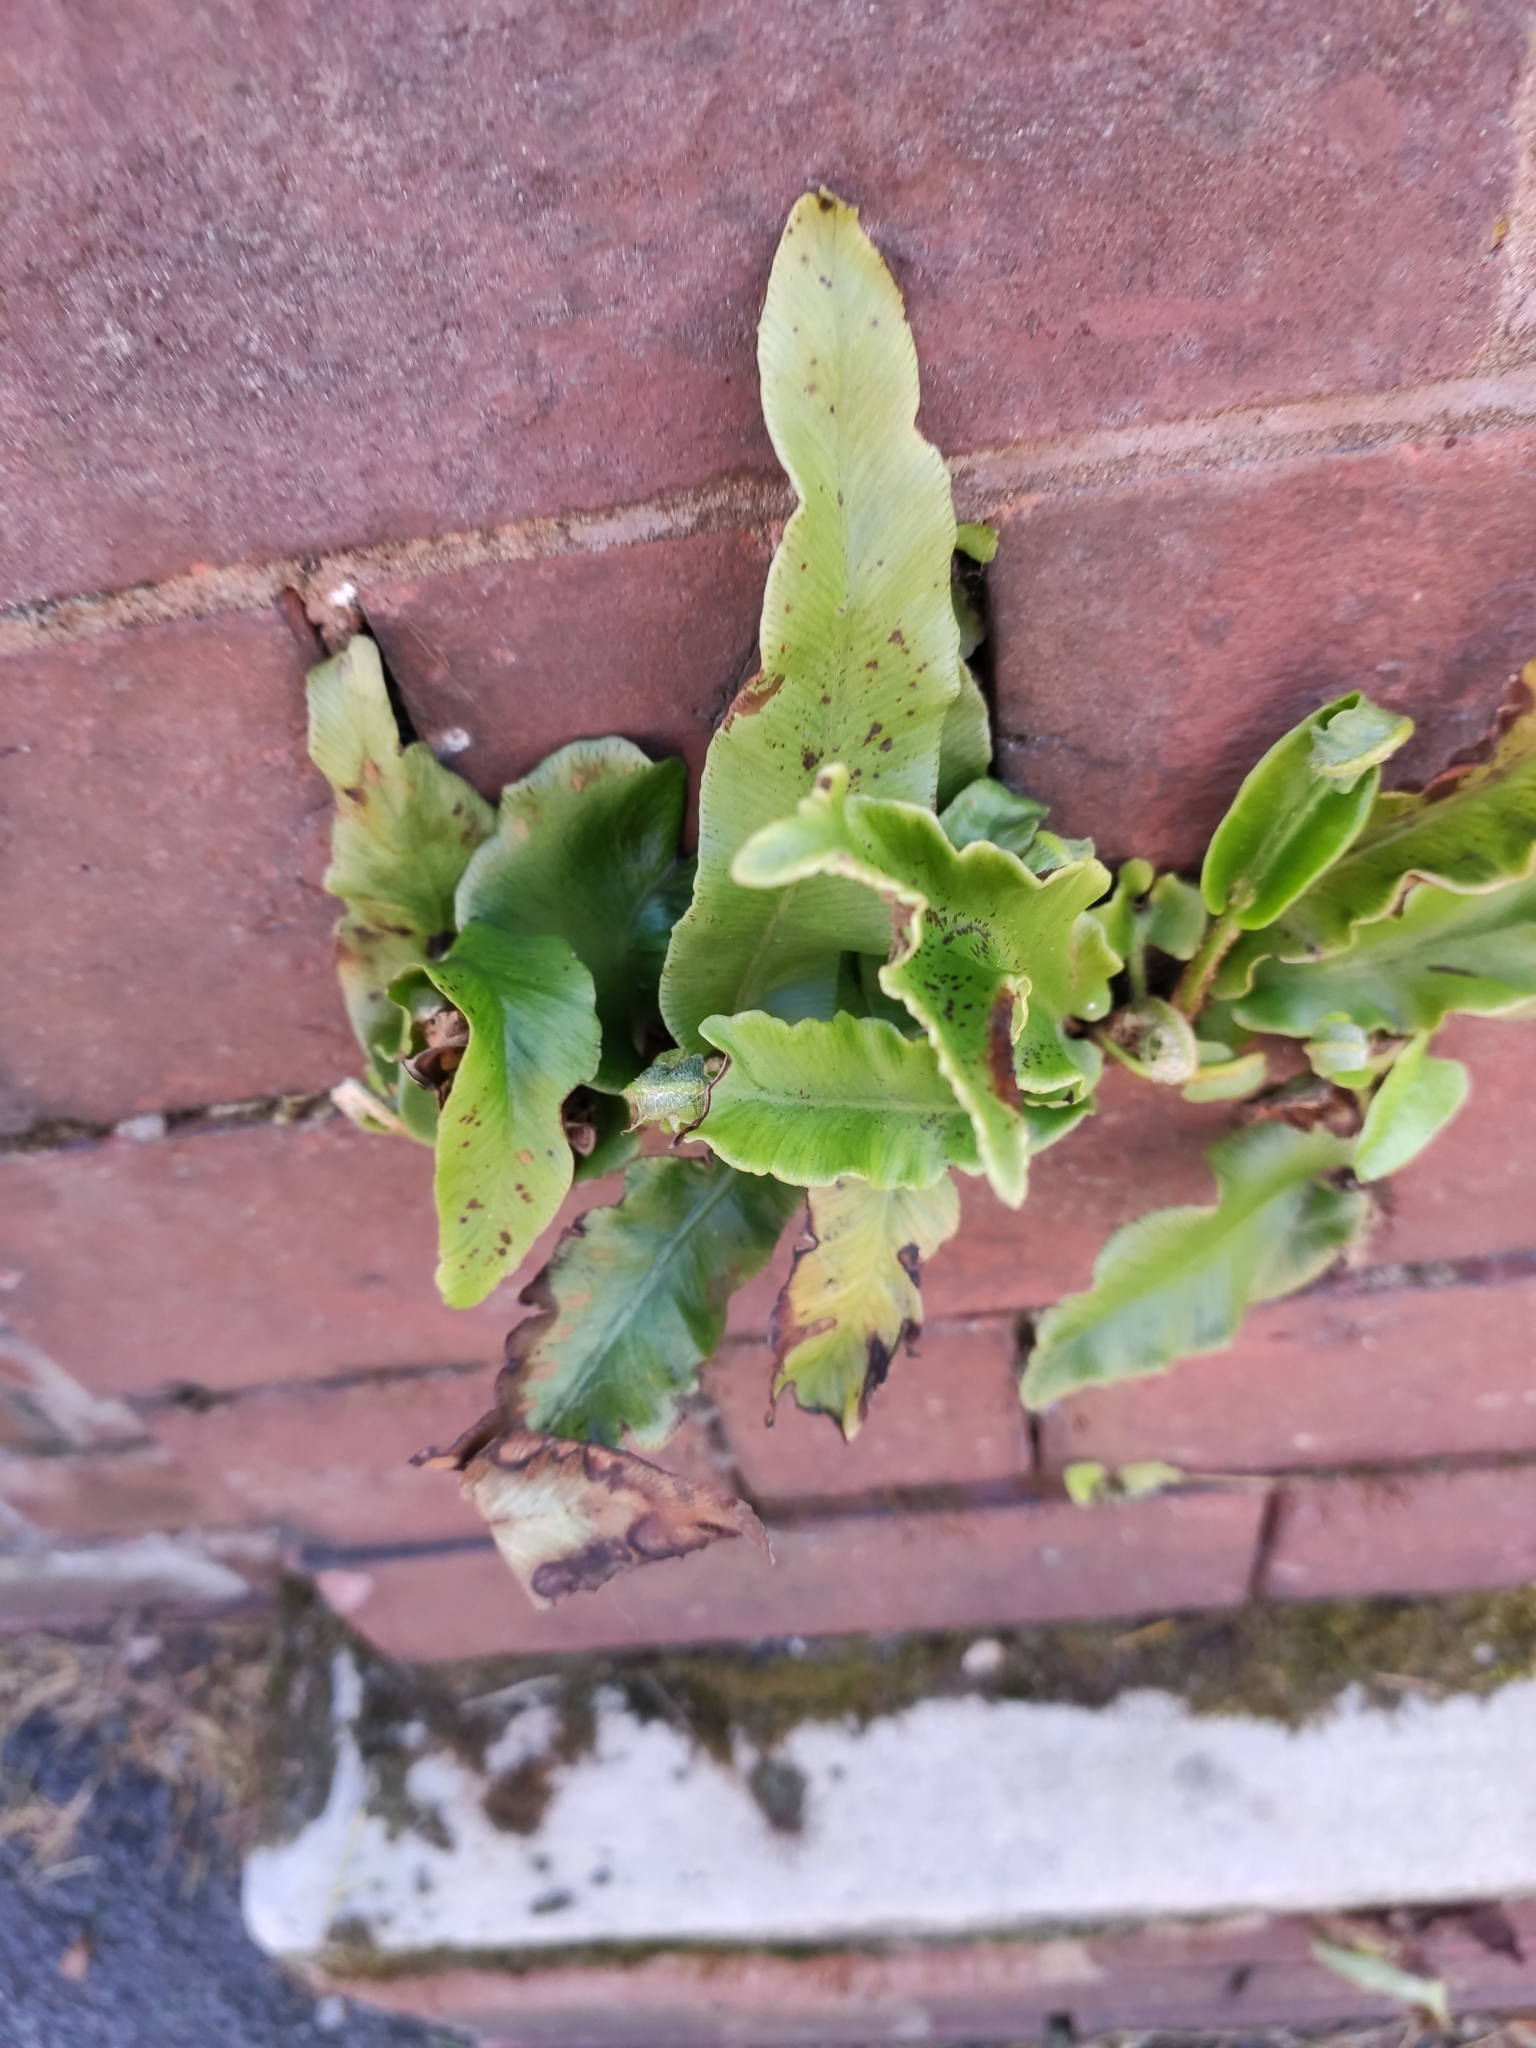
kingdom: Plantae
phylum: Tracheophyta
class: Polypodiopsida
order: Polypodiales
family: Aspleniaceae
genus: Asplenium
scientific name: Asplenium scolopendrium
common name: Hart's-tongue fern
